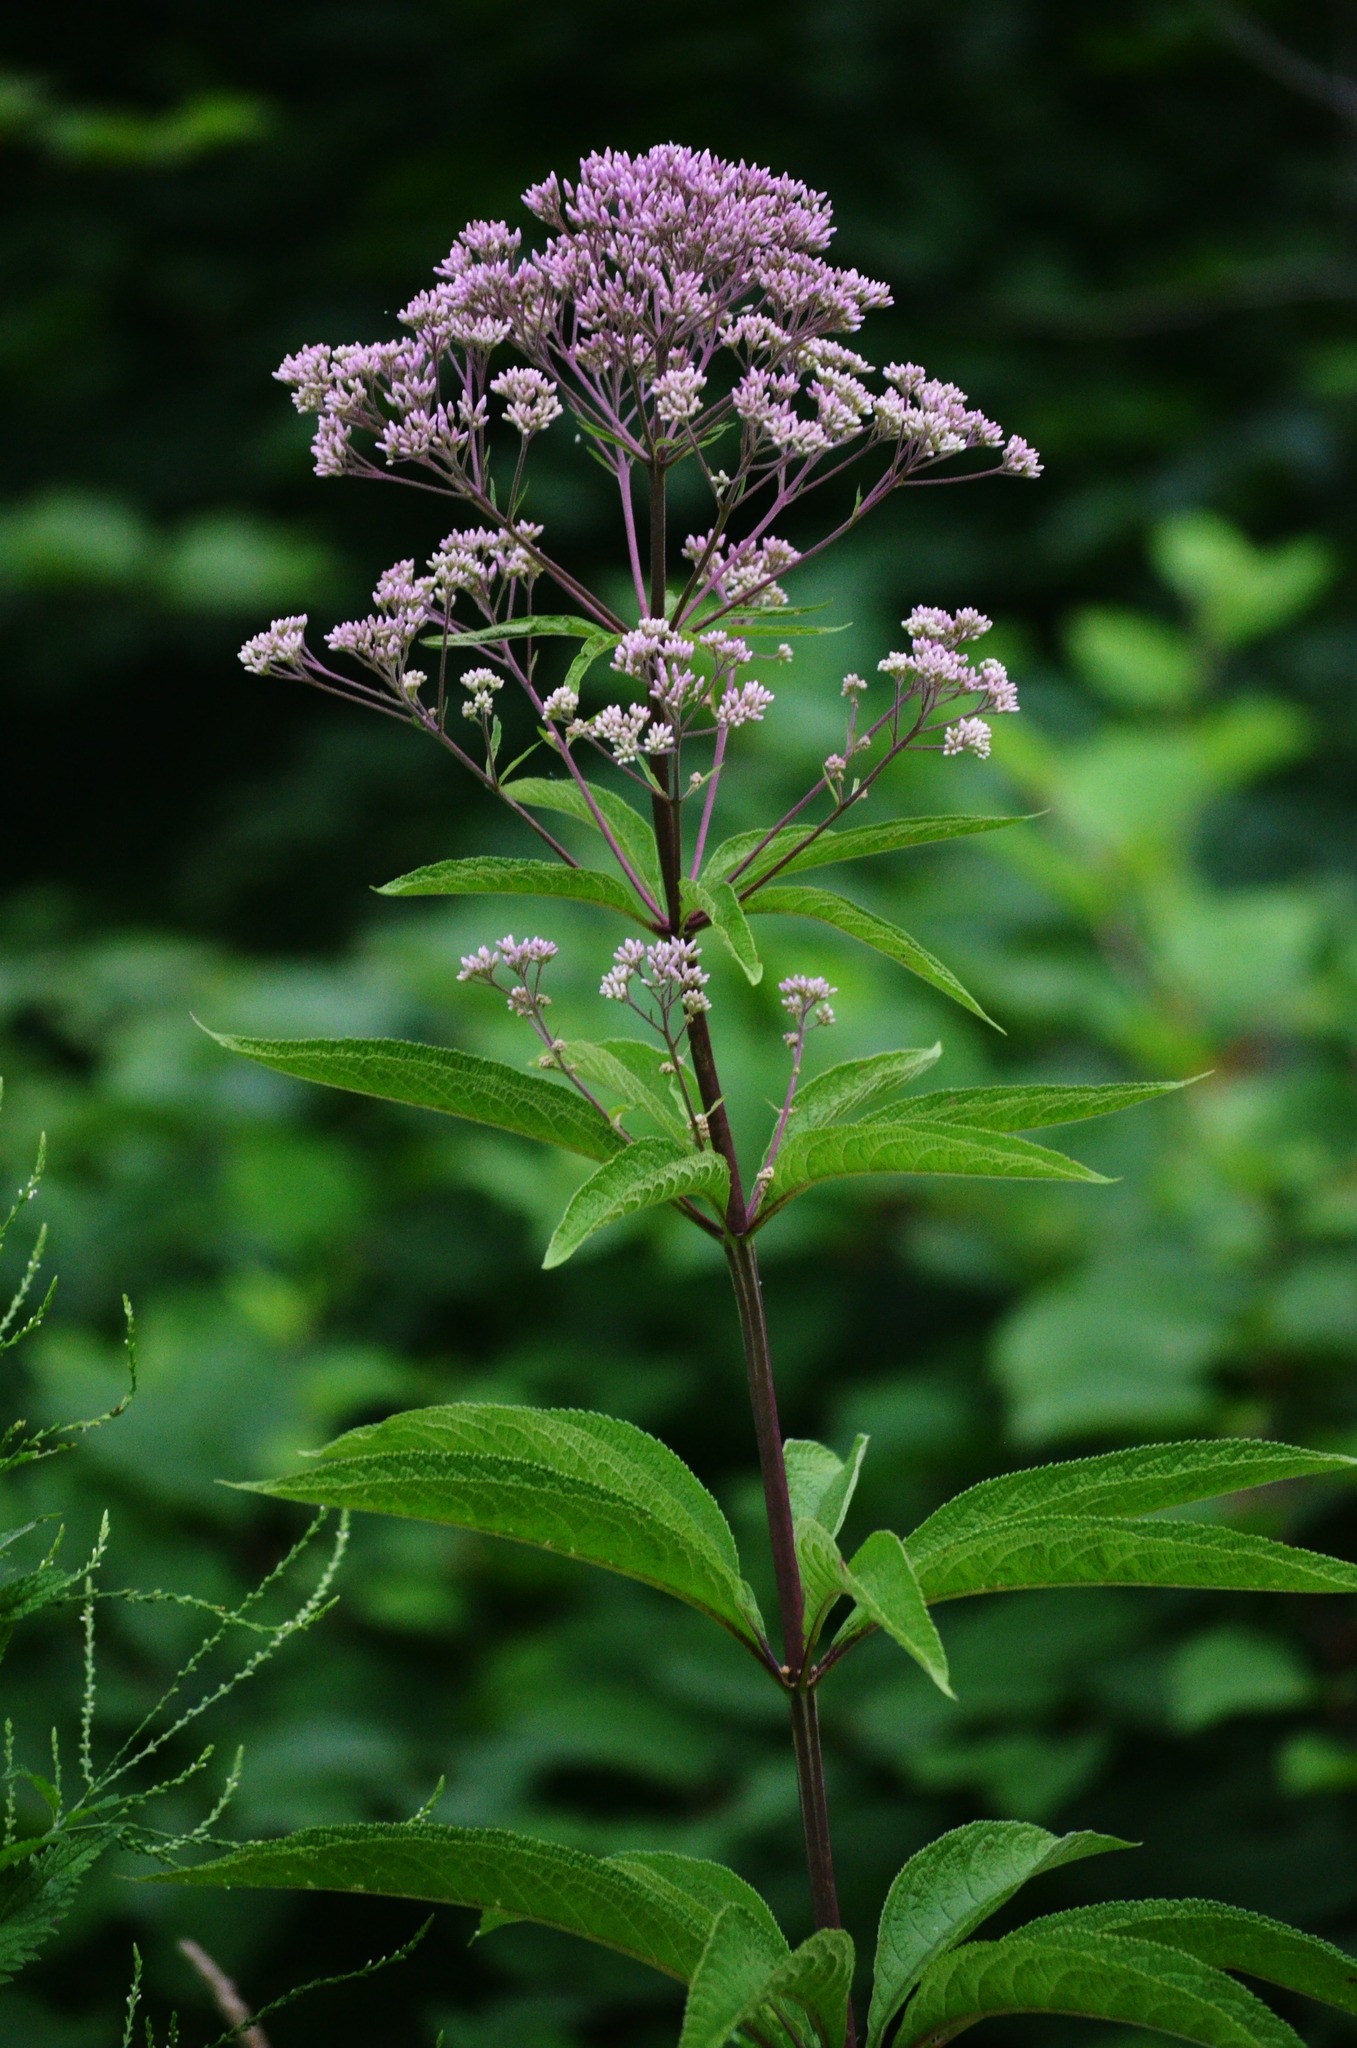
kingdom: Plantae
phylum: Tracheophyta
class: Magnoliopsida
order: Asterales
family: Asteraceae
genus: Eutrochium
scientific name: Eutrochium fistulosum
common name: Trumpetweed
